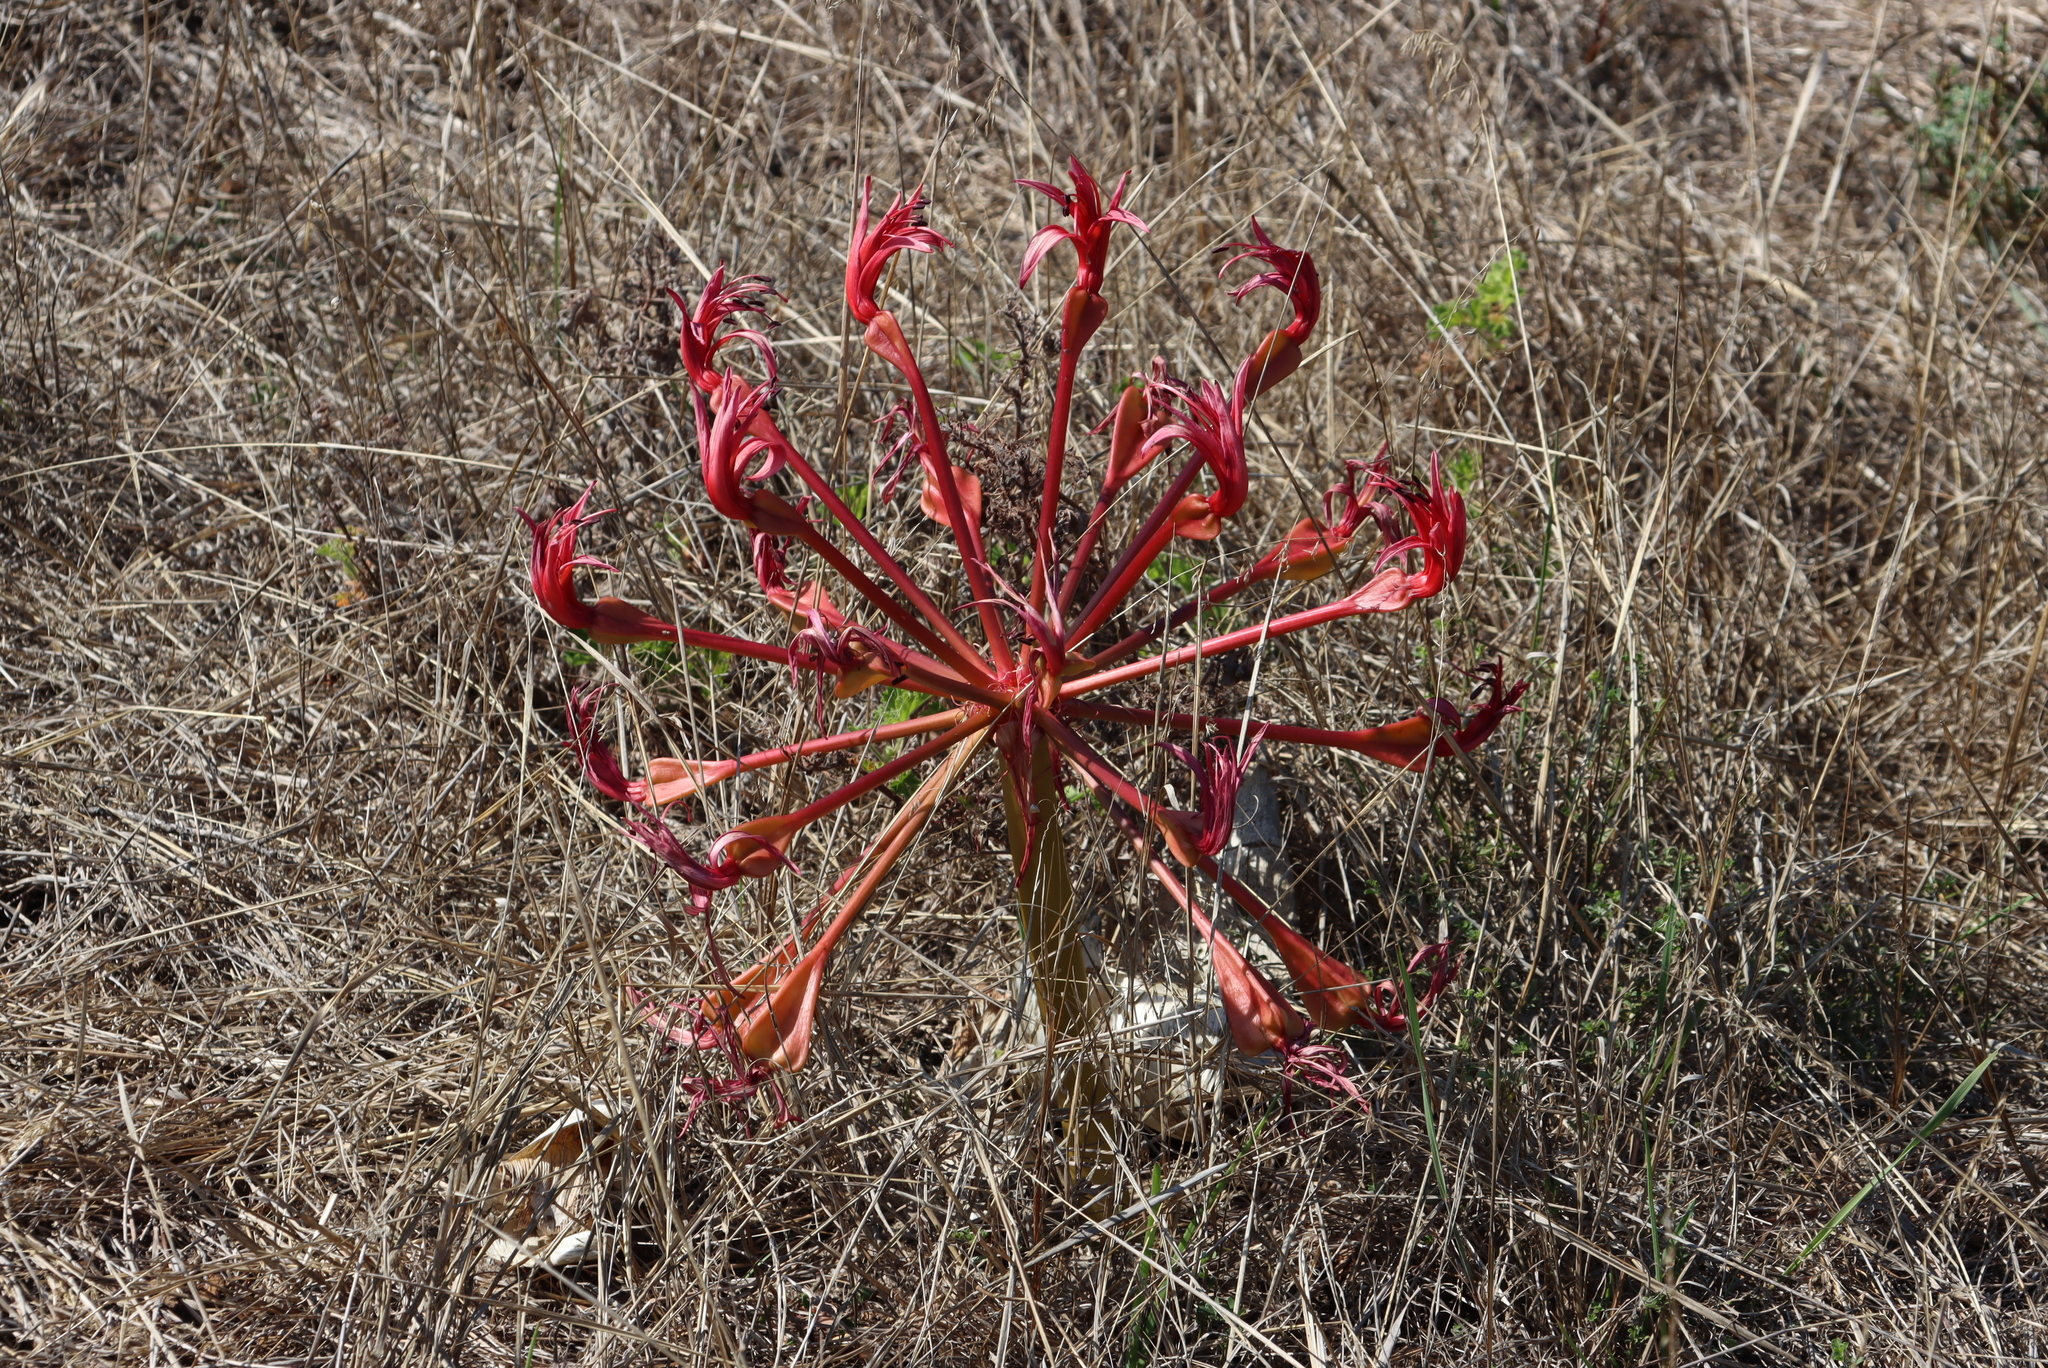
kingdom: Plantae
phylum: Tracheophyta
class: Liliopsida
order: Asparagales
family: Amaryllidaceae
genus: Brunsvigia
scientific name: Brunsvigia orientalis
